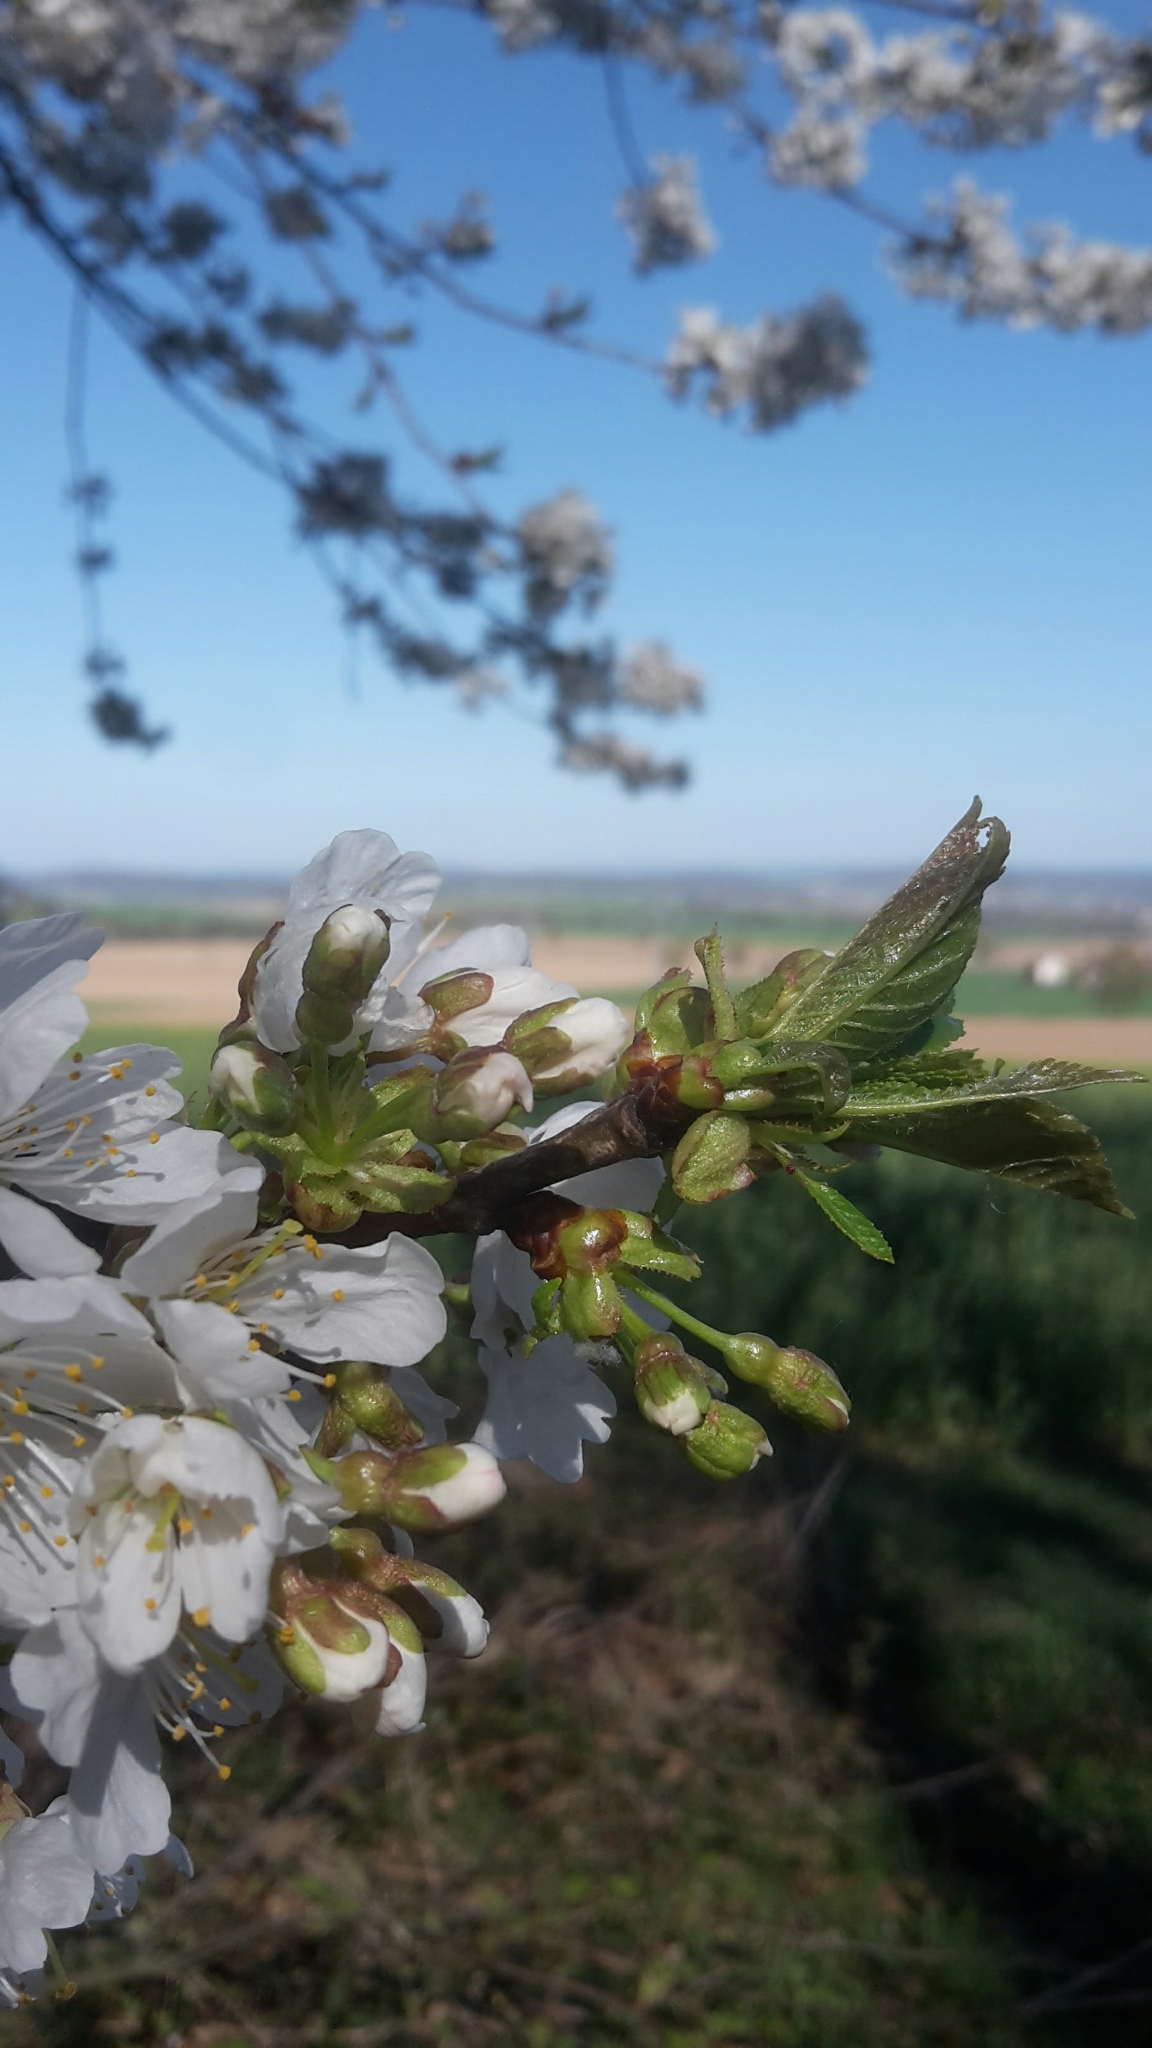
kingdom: Plantae
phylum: Tracheophyta
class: Magnoliopsida
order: Rosales
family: Rosaceae
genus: Prunus
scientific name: Prunus avium
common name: Sweet cherry
